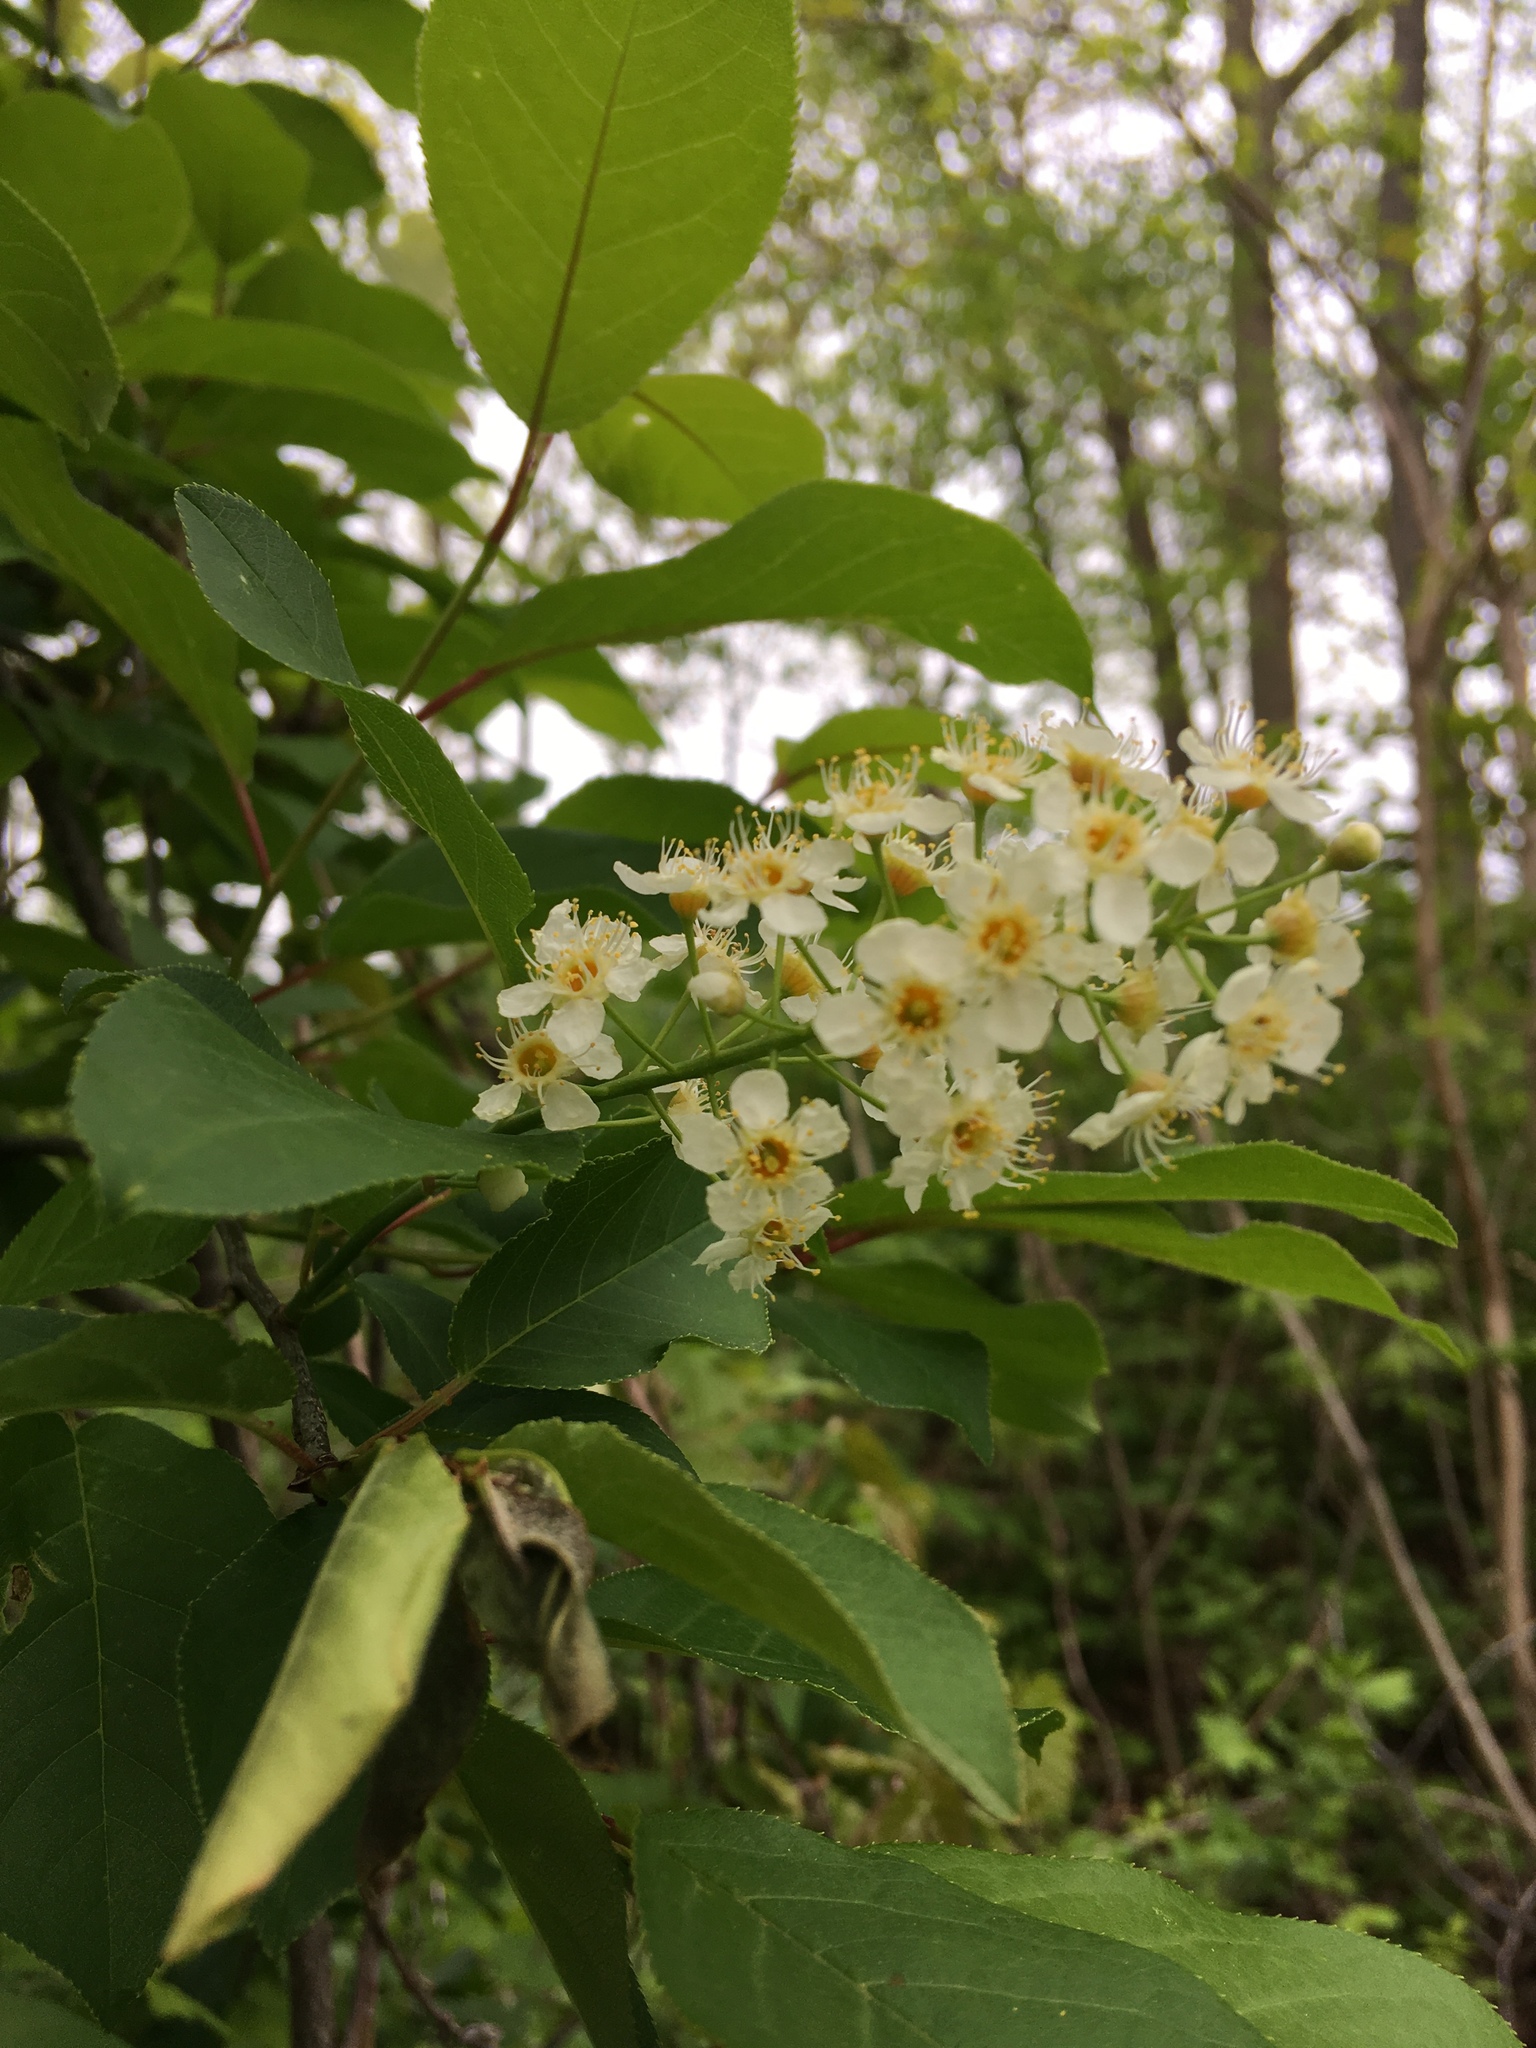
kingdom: Plantae
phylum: Tracheophyta
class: Magnoliopsida
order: Rosales
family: Rosaceae
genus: Prunus
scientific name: Prunus virginiana
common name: Chokecherry
